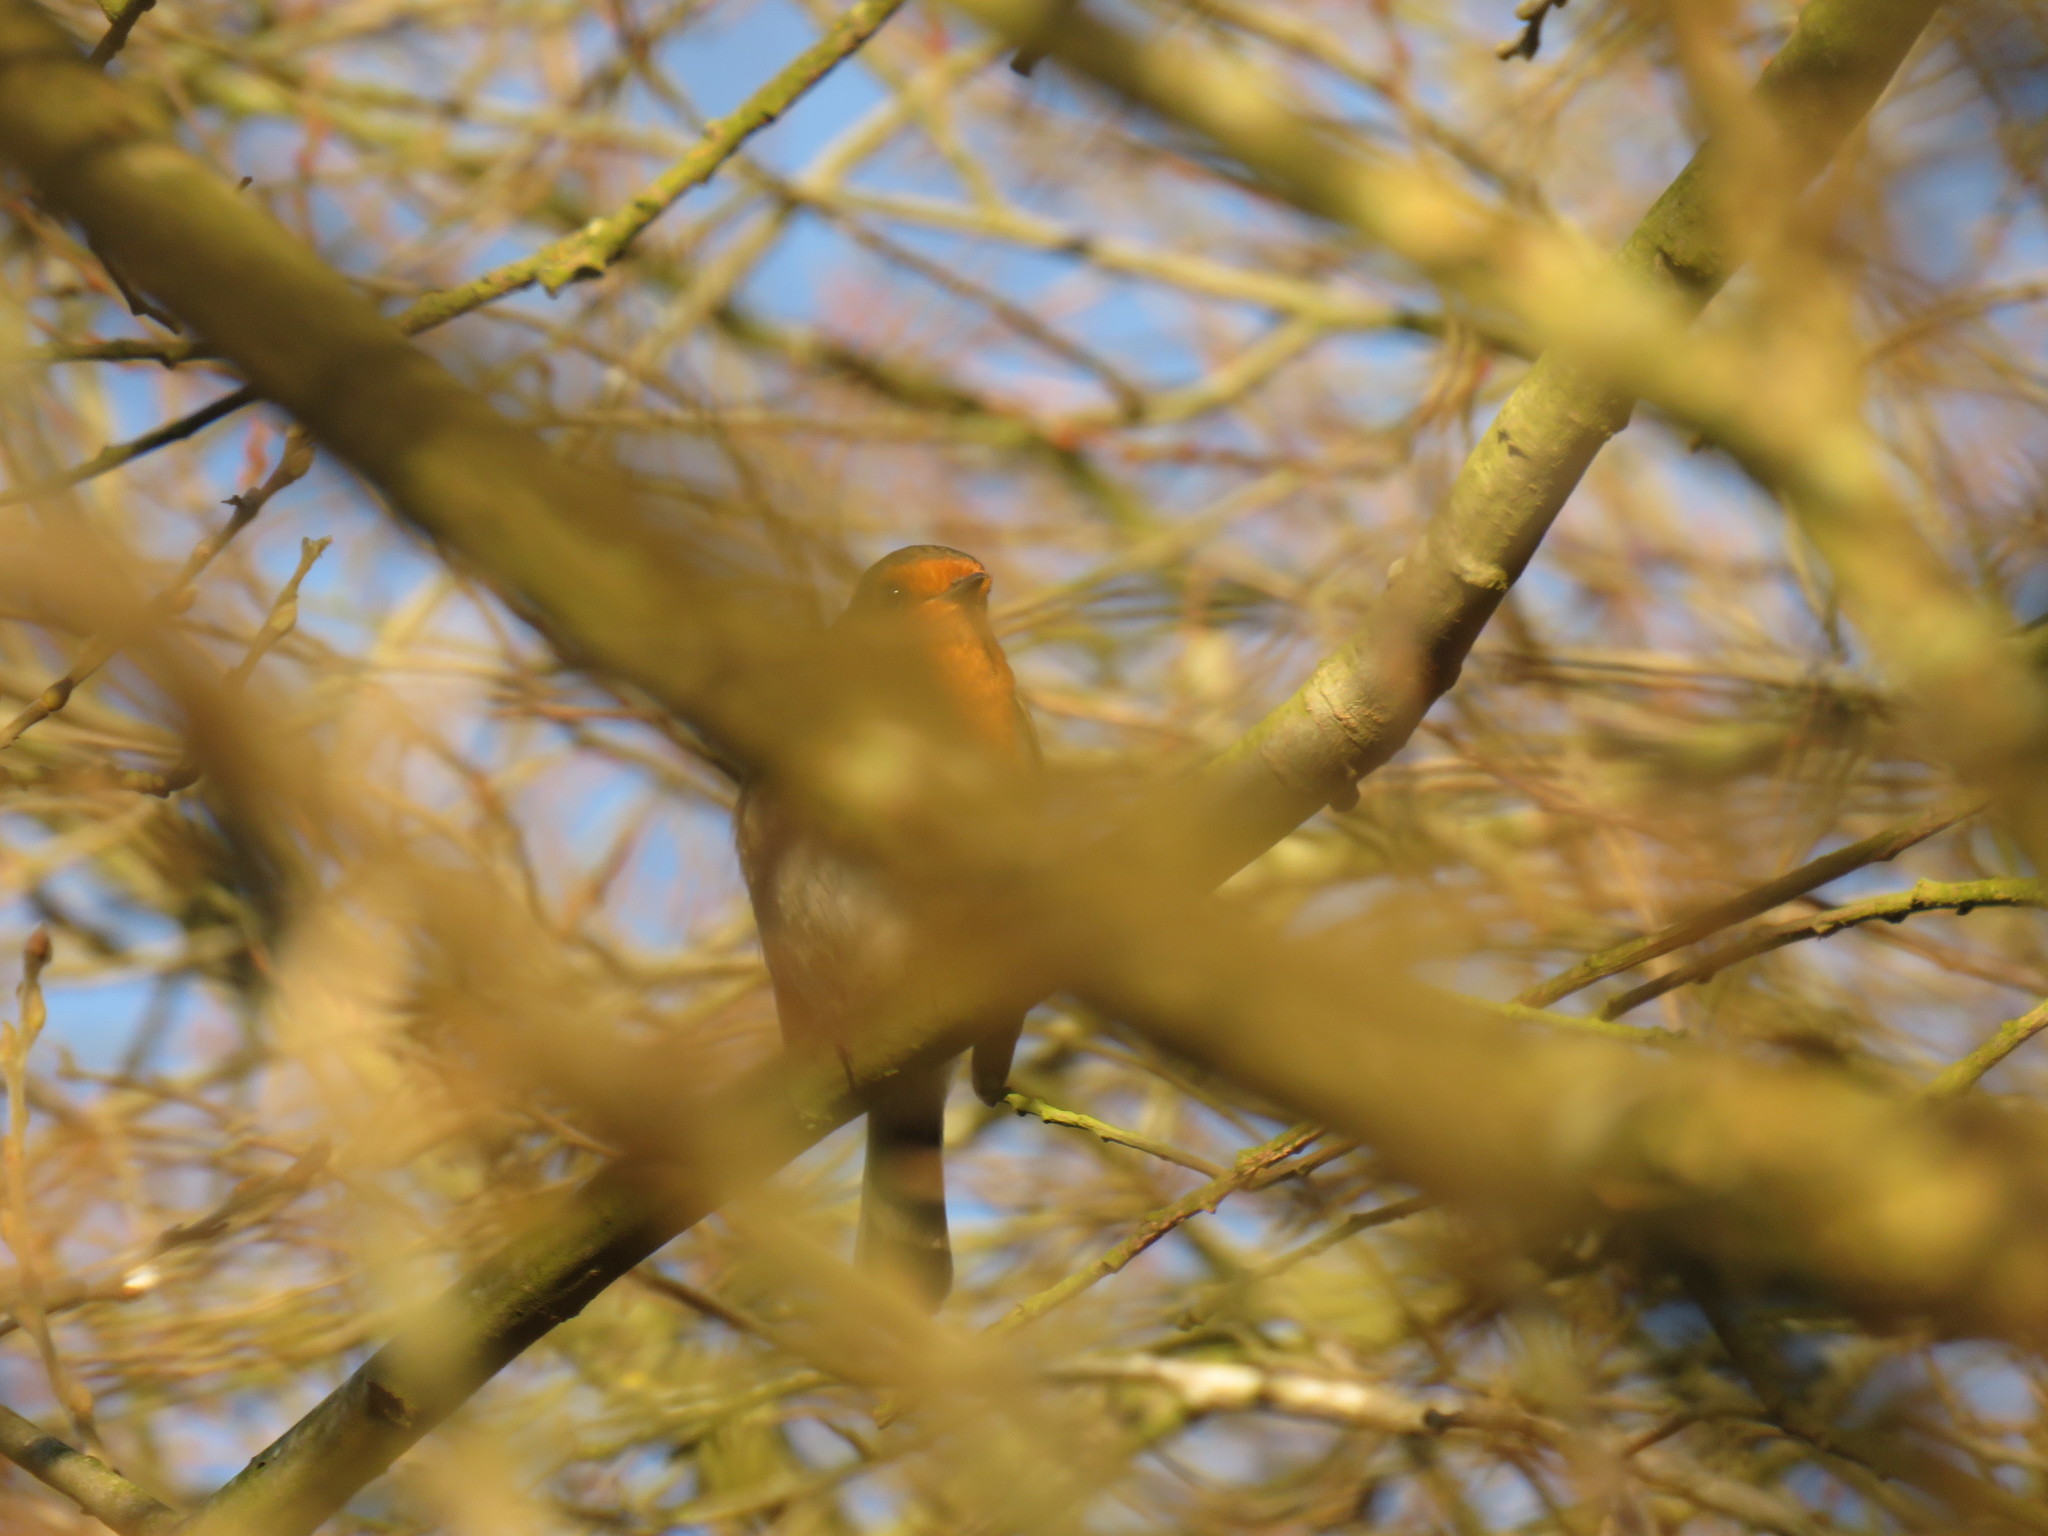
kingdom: Animalia
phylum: Chordata
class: Aves
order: Passeriformes
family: Muscicapidae
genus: Erithacus
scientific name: Erithacus rubecula
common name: European robin
